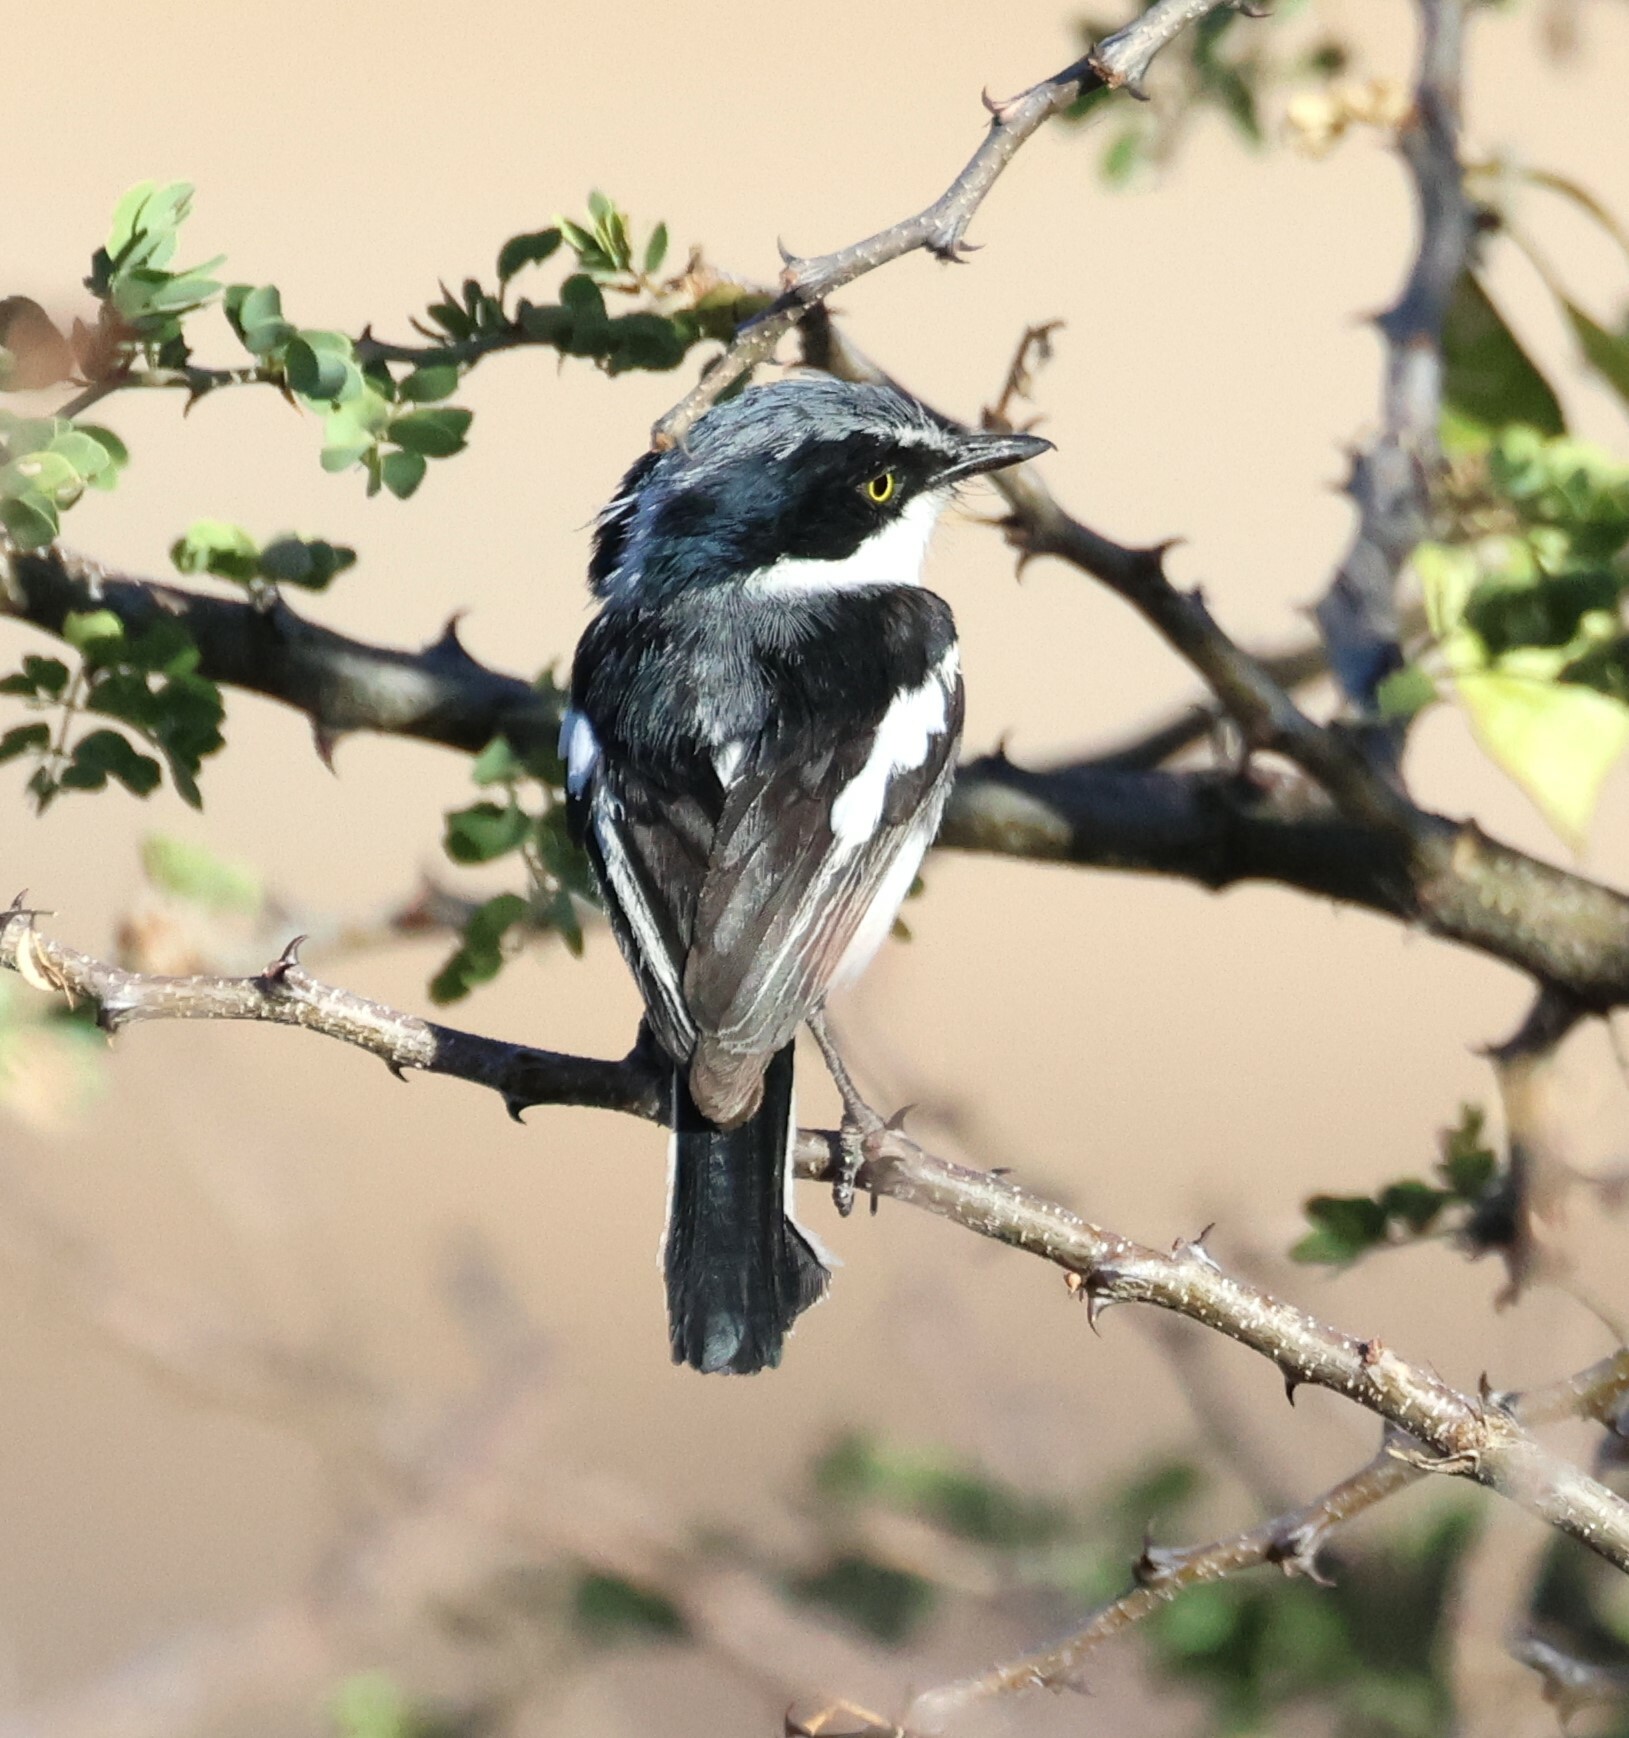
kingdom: Animalia
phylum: Chordata
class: Aves
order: Passeriformes
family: Platysteiridae
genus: Batis
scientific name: Batis pririt
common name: Pririt batis
